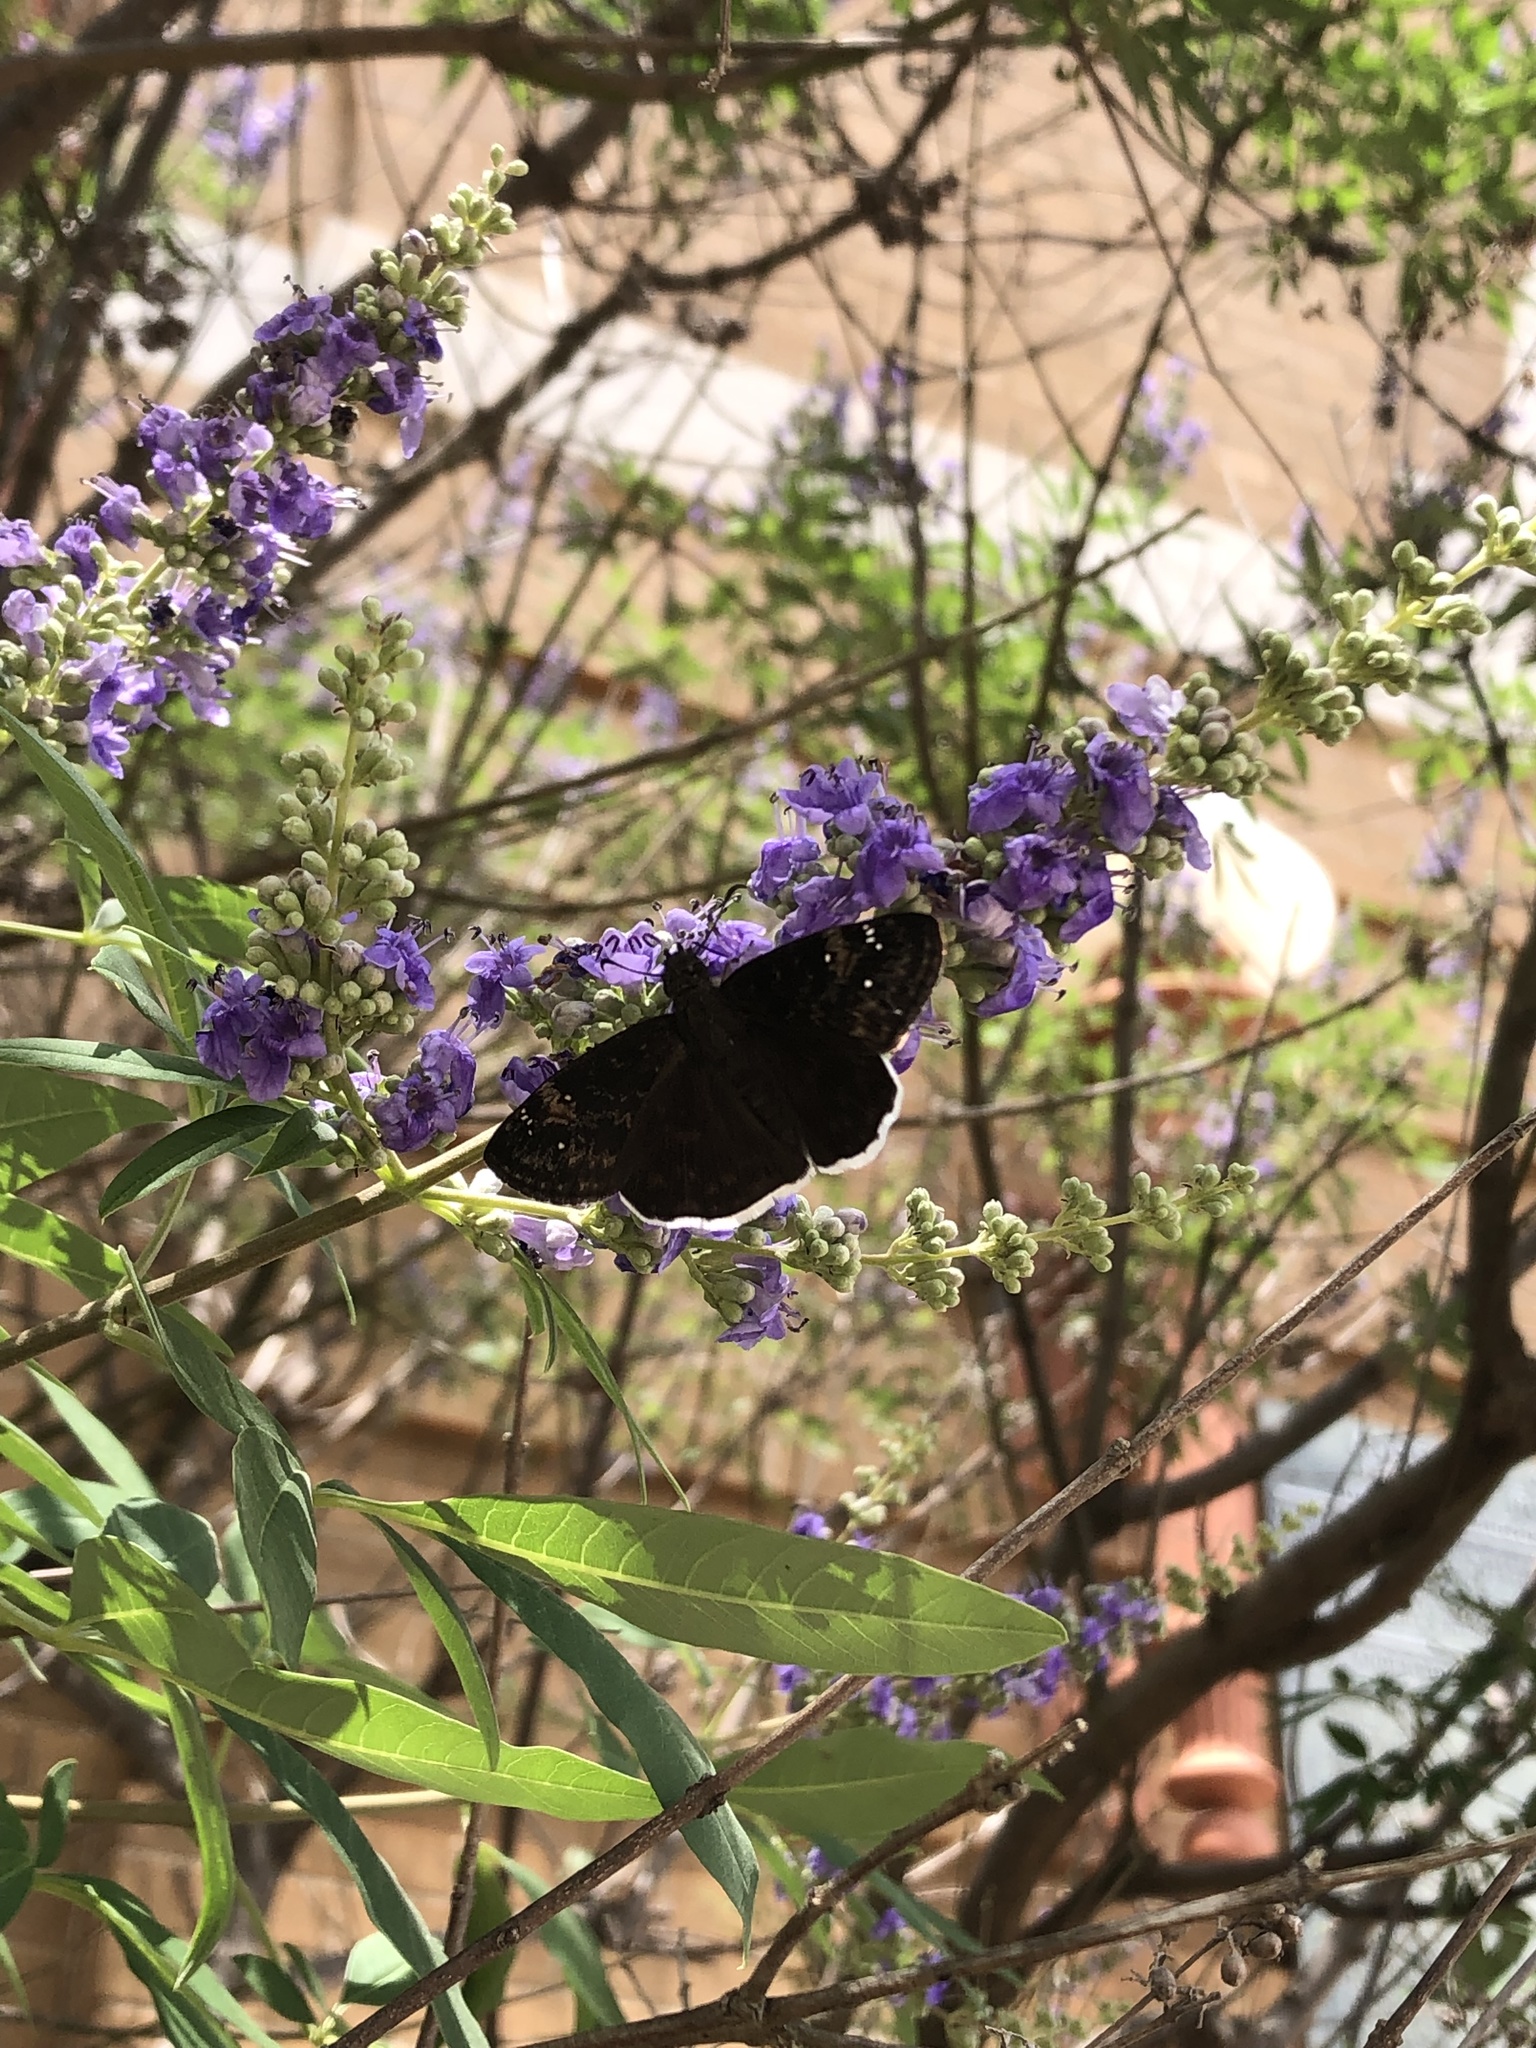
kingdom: Animalia
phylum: Arthropoda
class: Insecta
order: Lepidoptera
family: Hesperiidae
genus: Erynnis
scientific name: Erynnis funeralis
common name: Funereal duskywing
